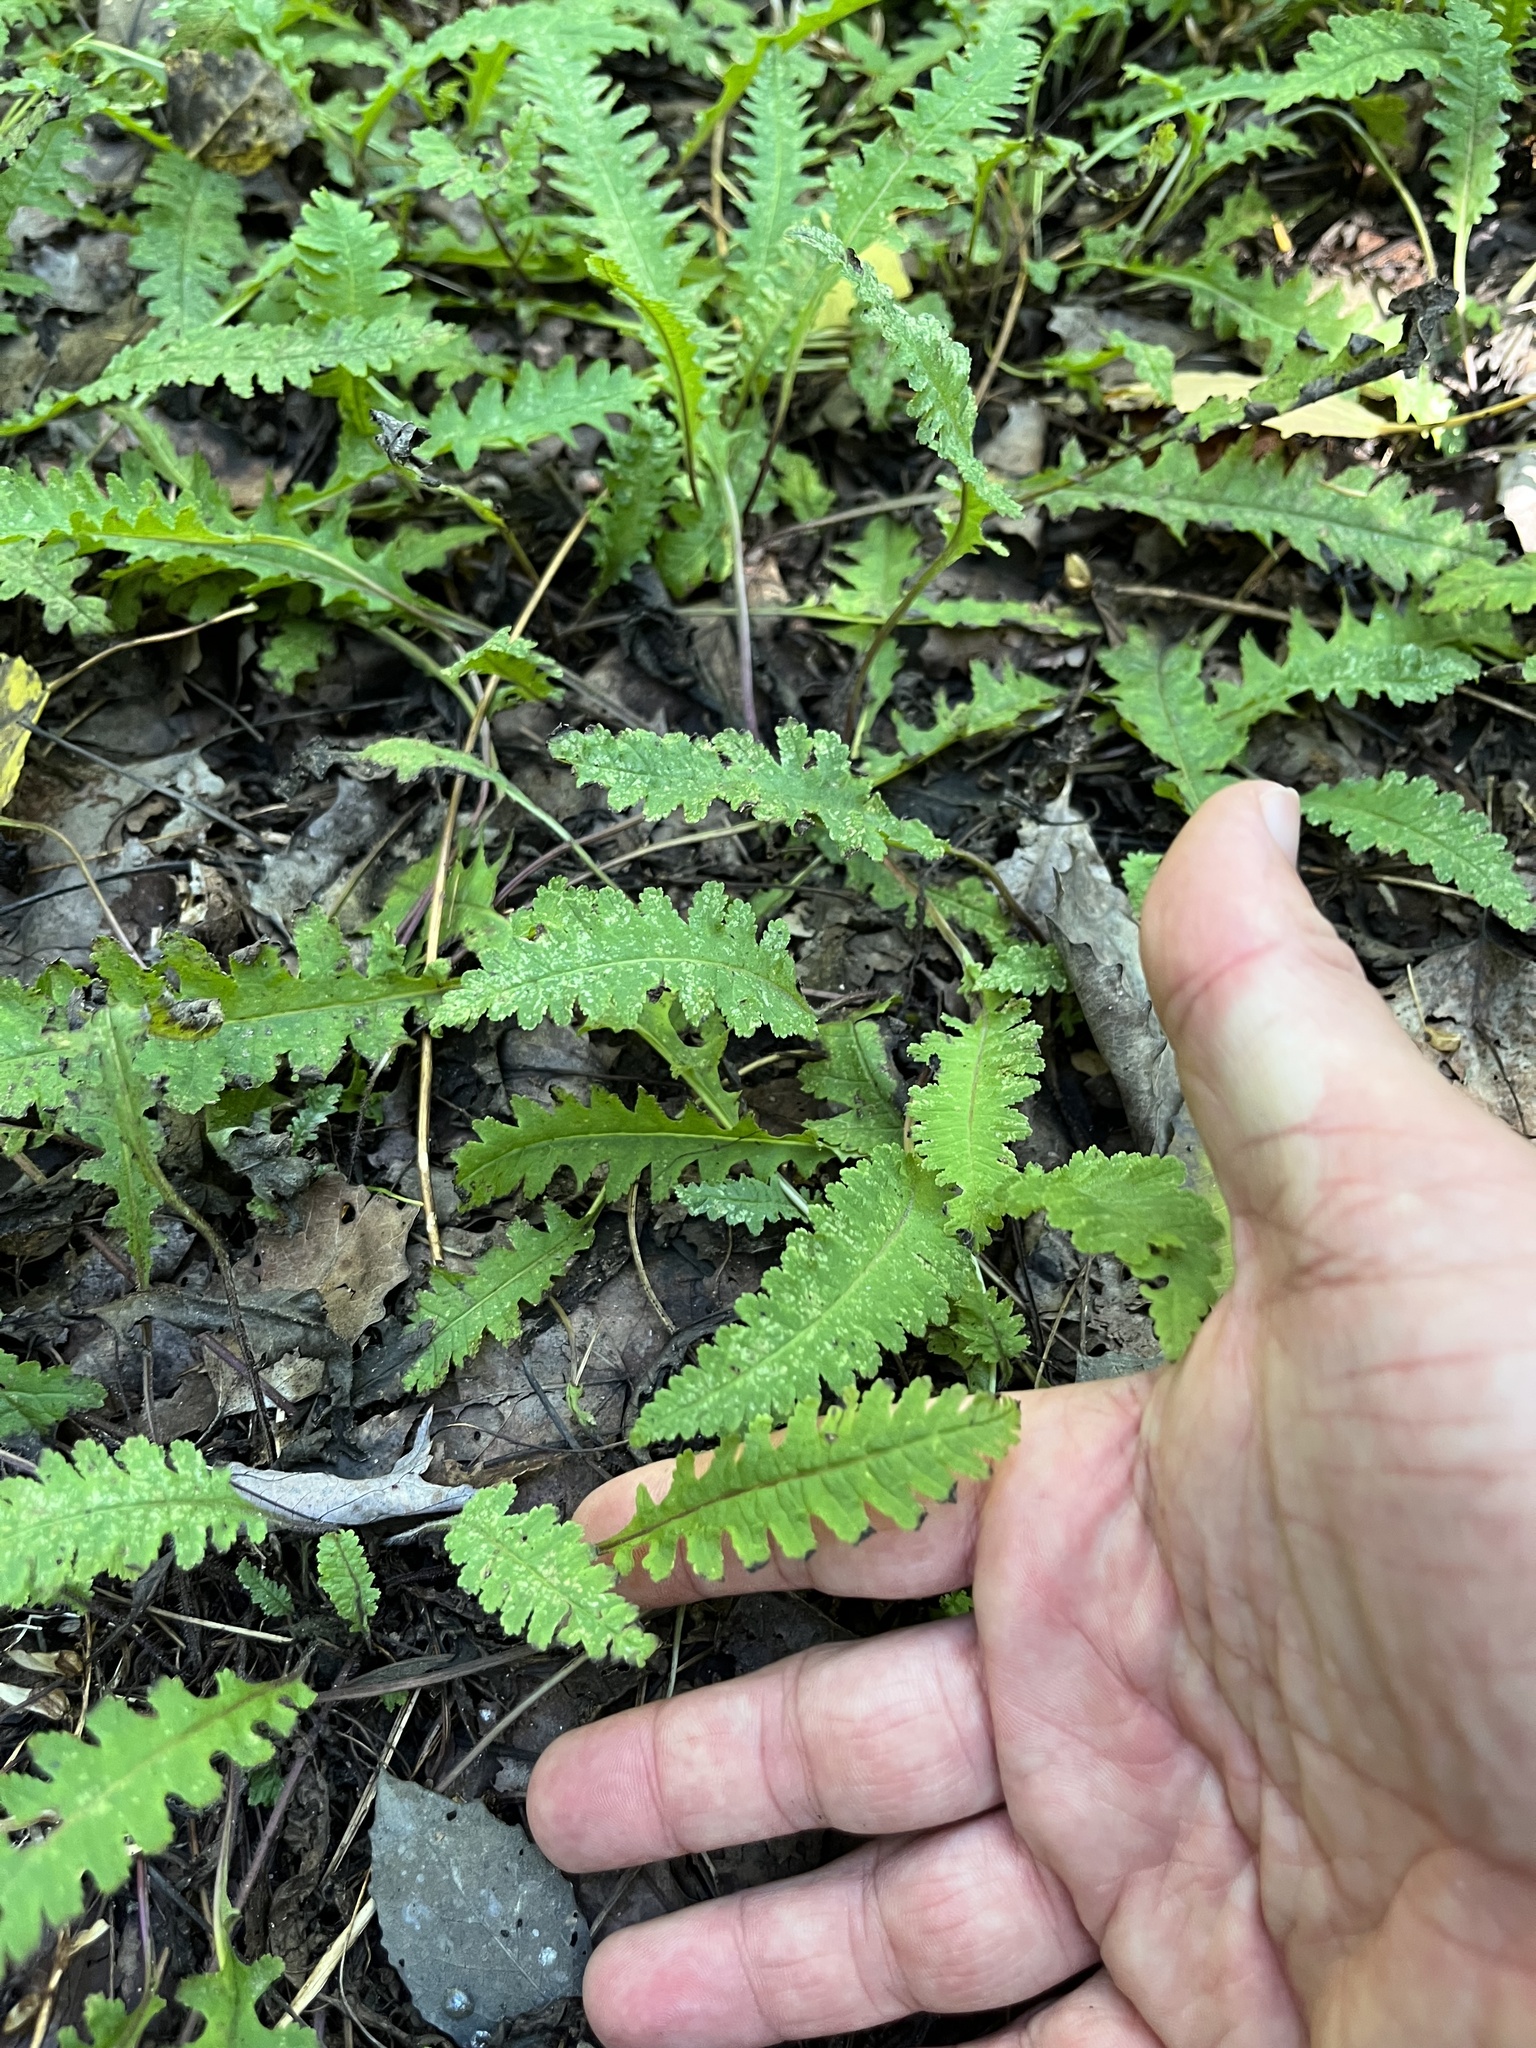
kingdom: Plantae
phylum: Tracheophyta
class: Magnoliopsida
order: Lamiales
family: Orobanchaceae
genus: Pedicularis
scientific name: Pedicularis canadensis
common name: Early lousewort
